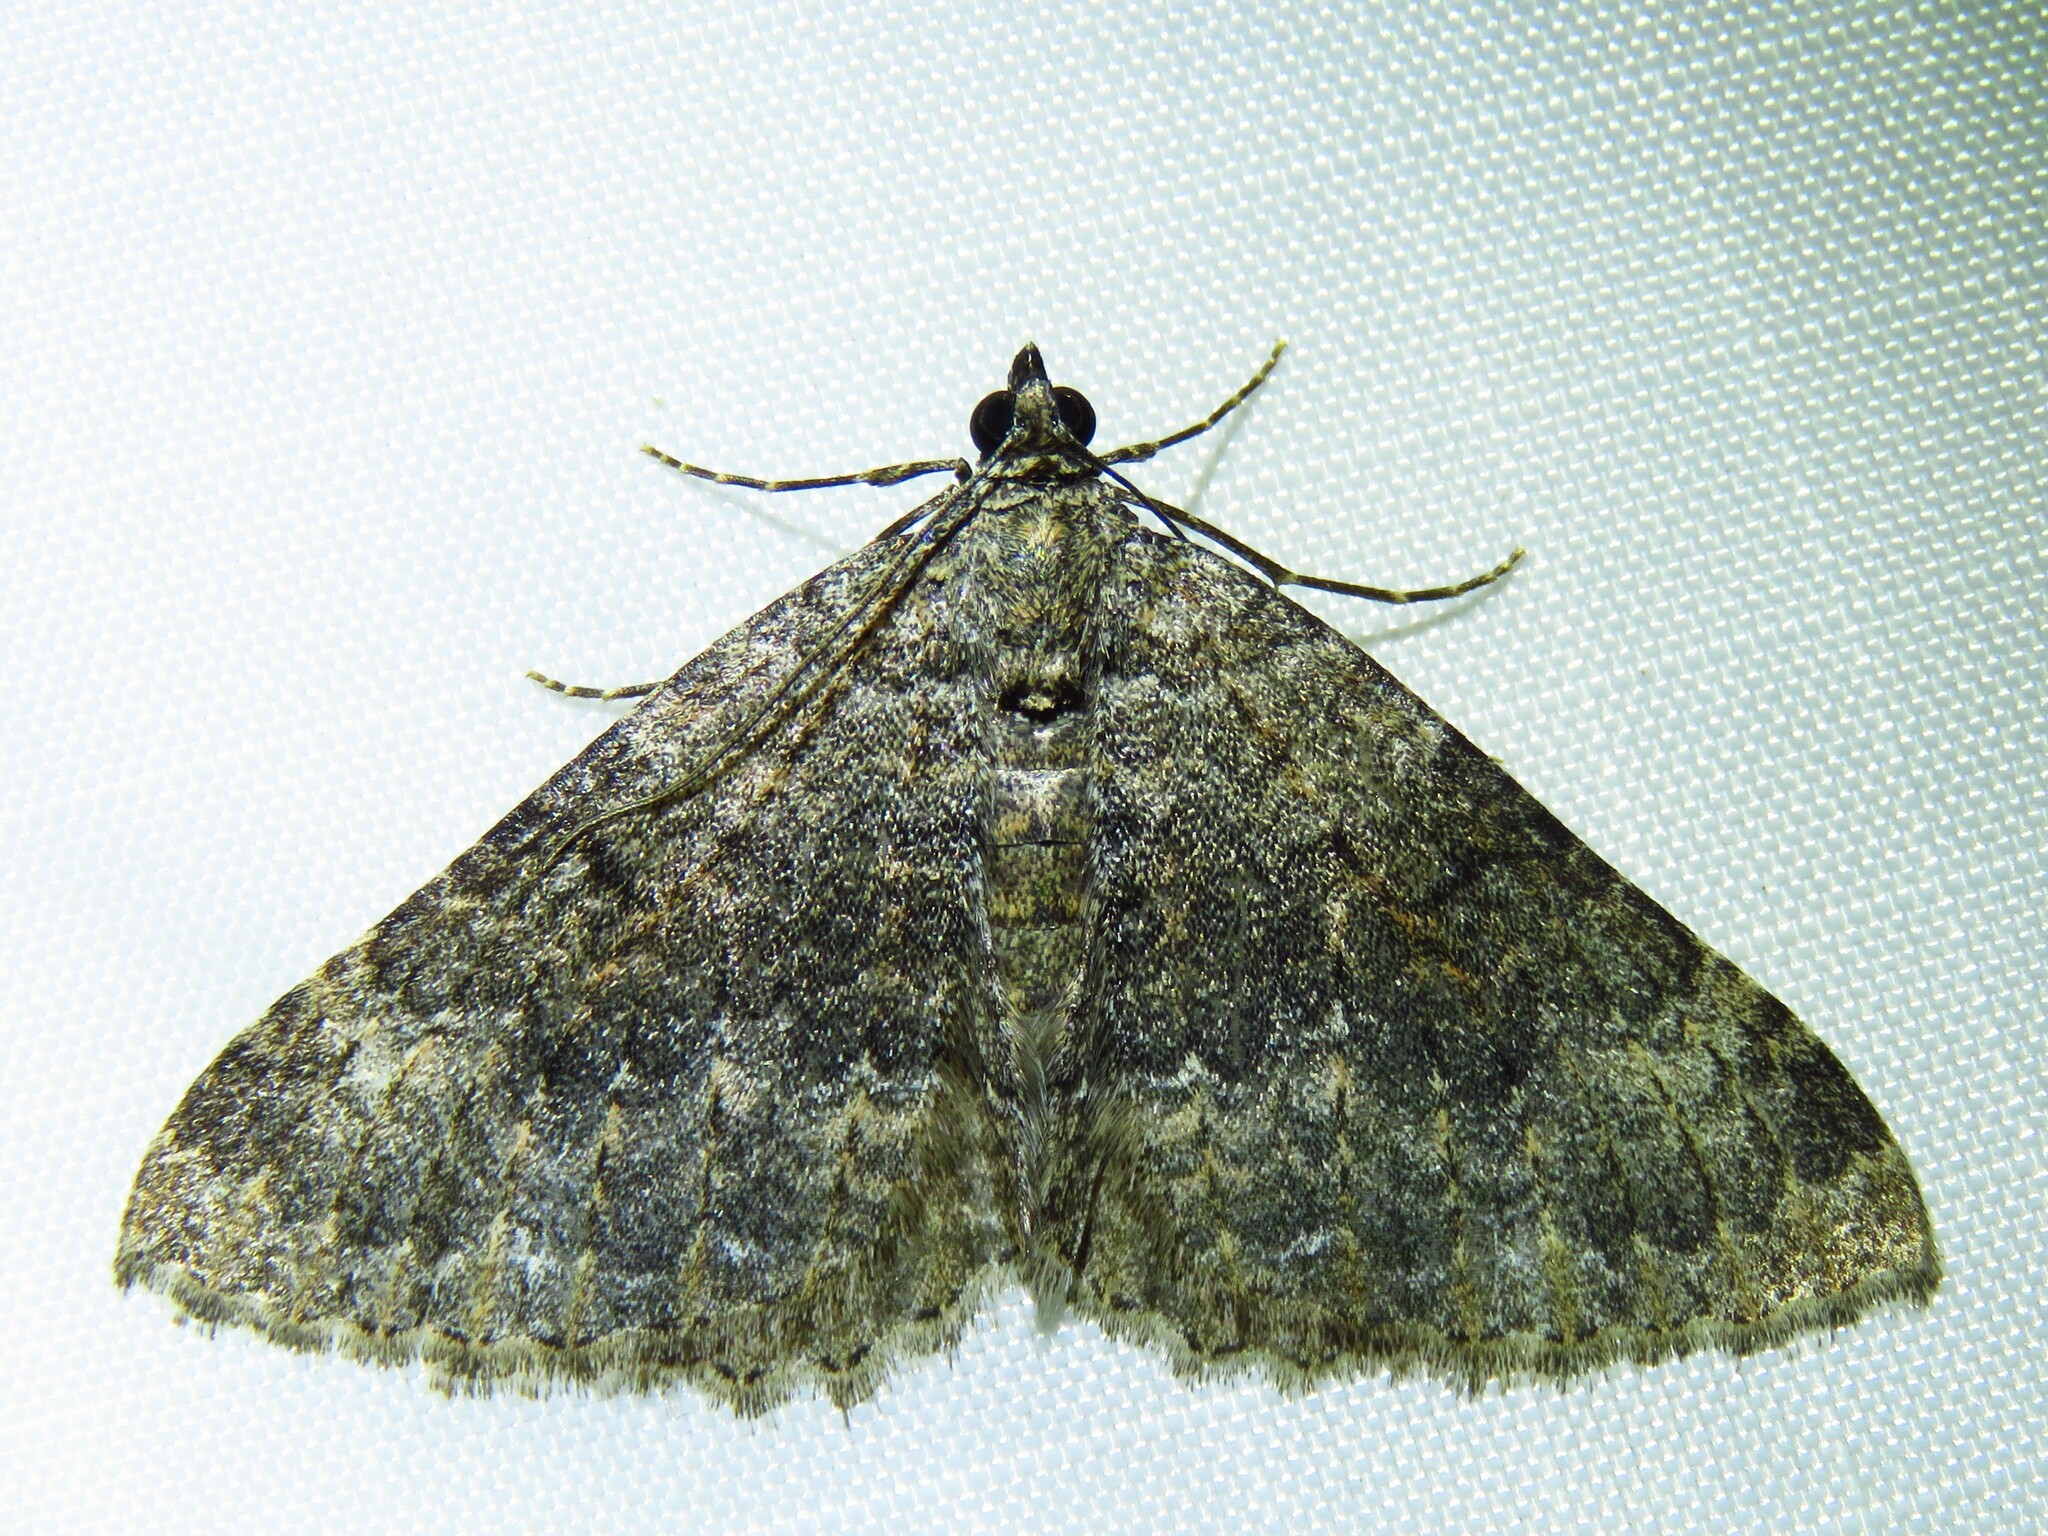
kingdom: Animalia
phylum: Arthropoda
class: Insecta
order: Lepidoptera
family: Geometridae
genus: Archirhoe
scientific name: Archirhoe neomexicana
